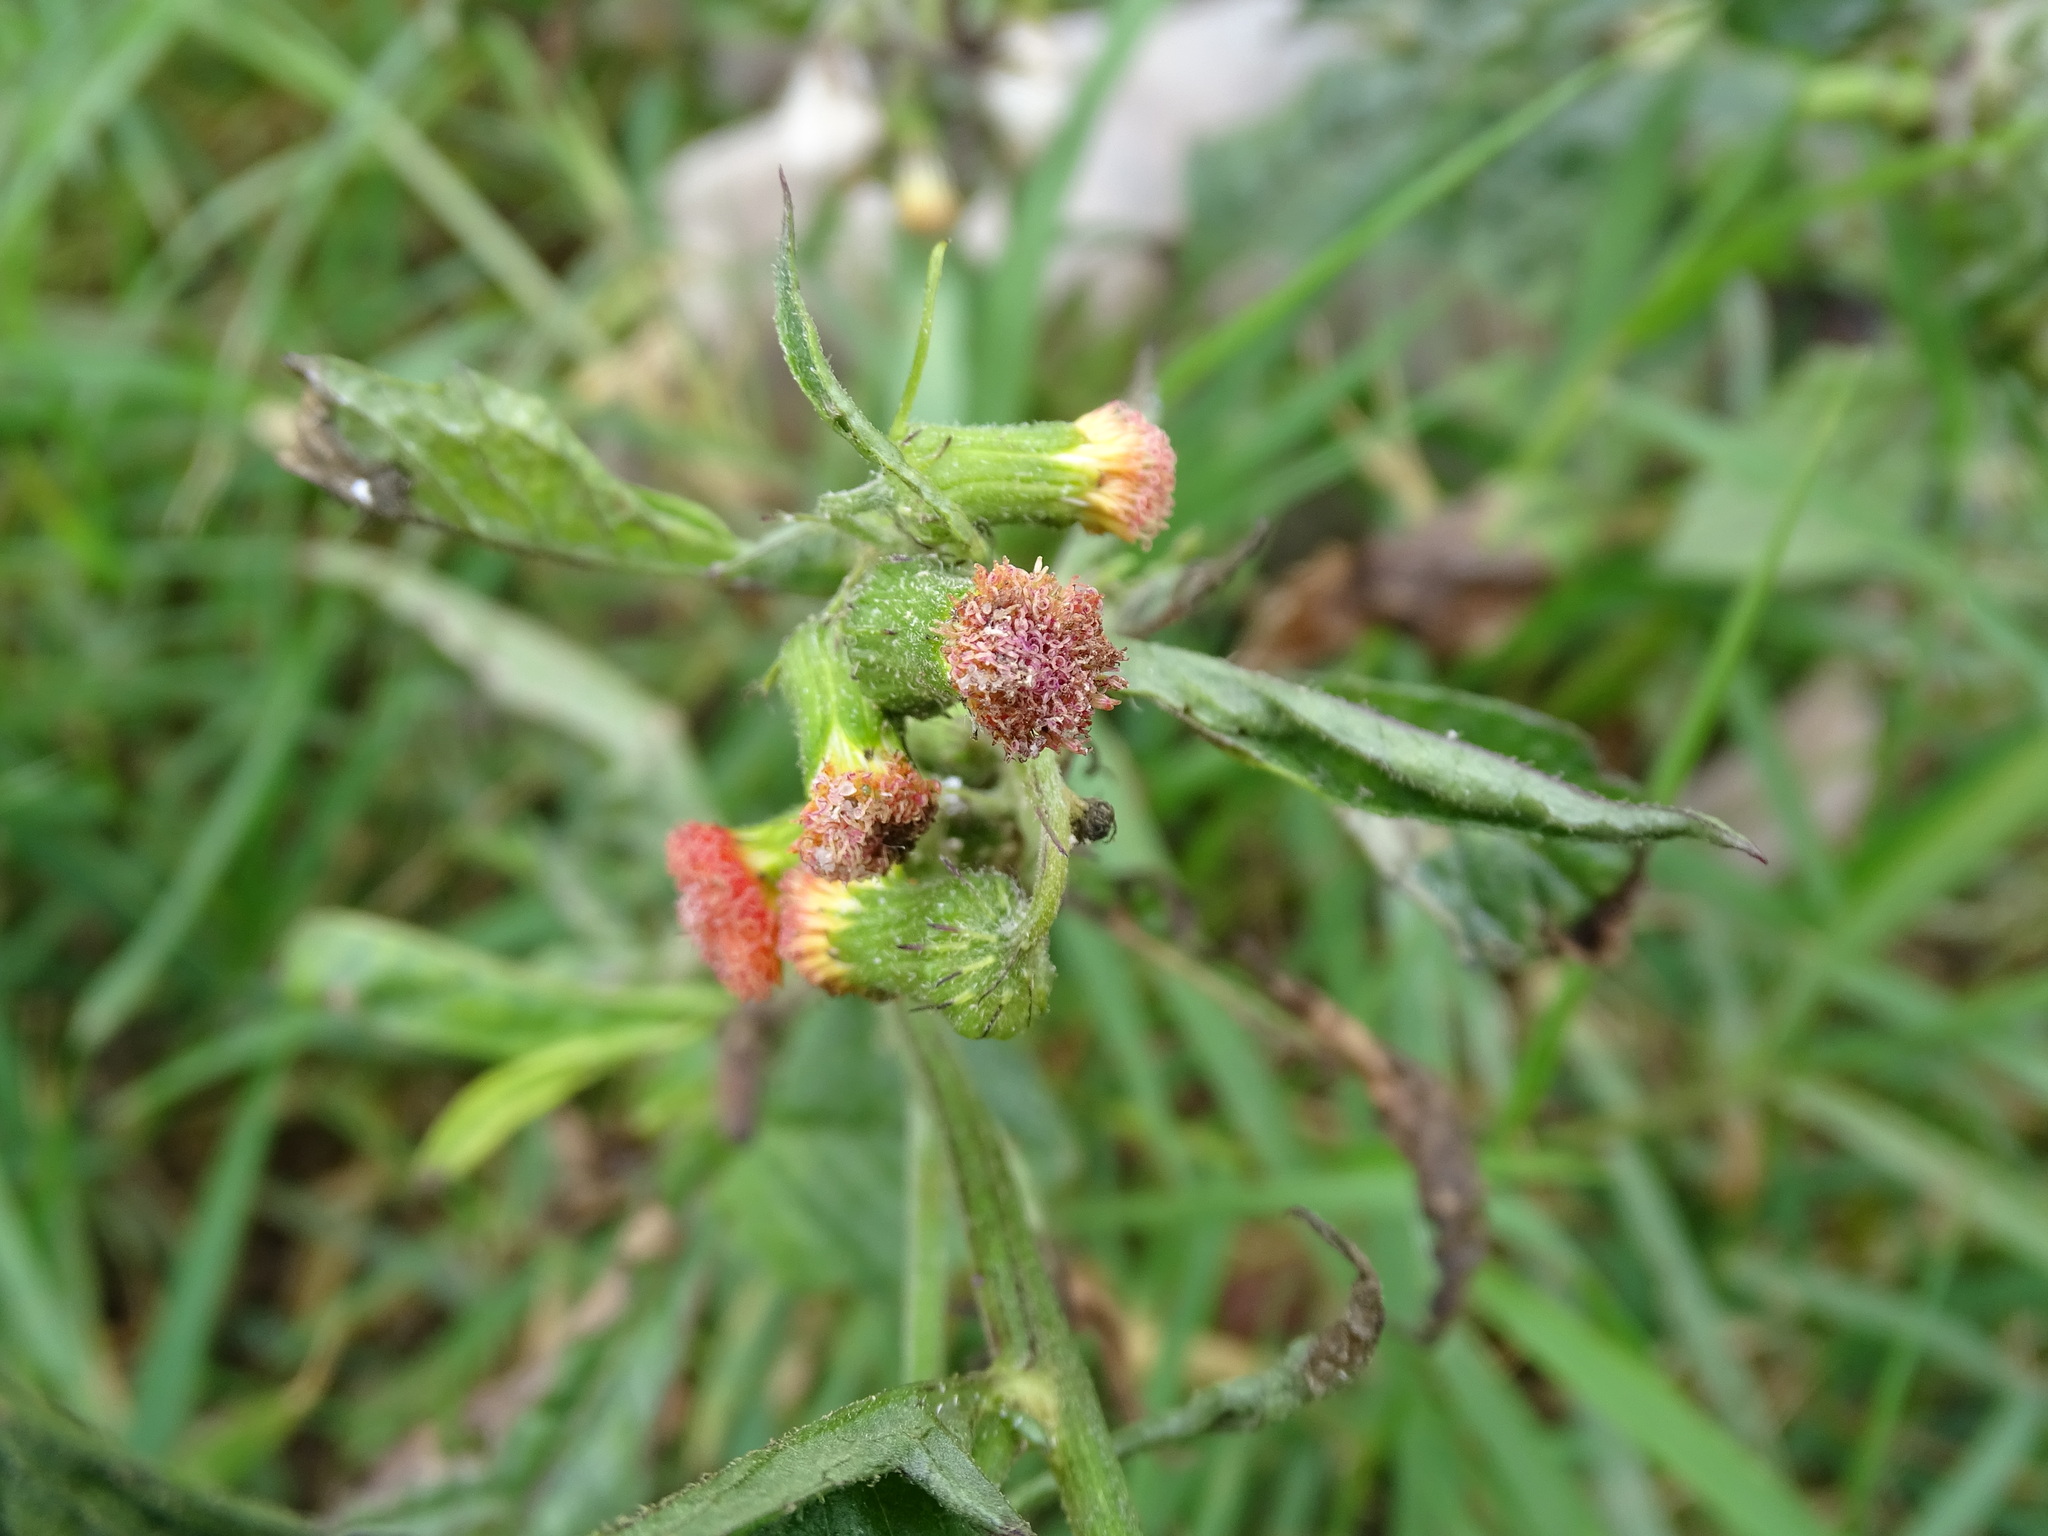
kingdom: Plantae
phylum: Tracheophyta
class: Magnoliopsida
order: Asterales
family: Asteraceae
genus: Crassocephalum
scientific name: Crassocephalum crepidioides
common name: Redflower ragleaf
